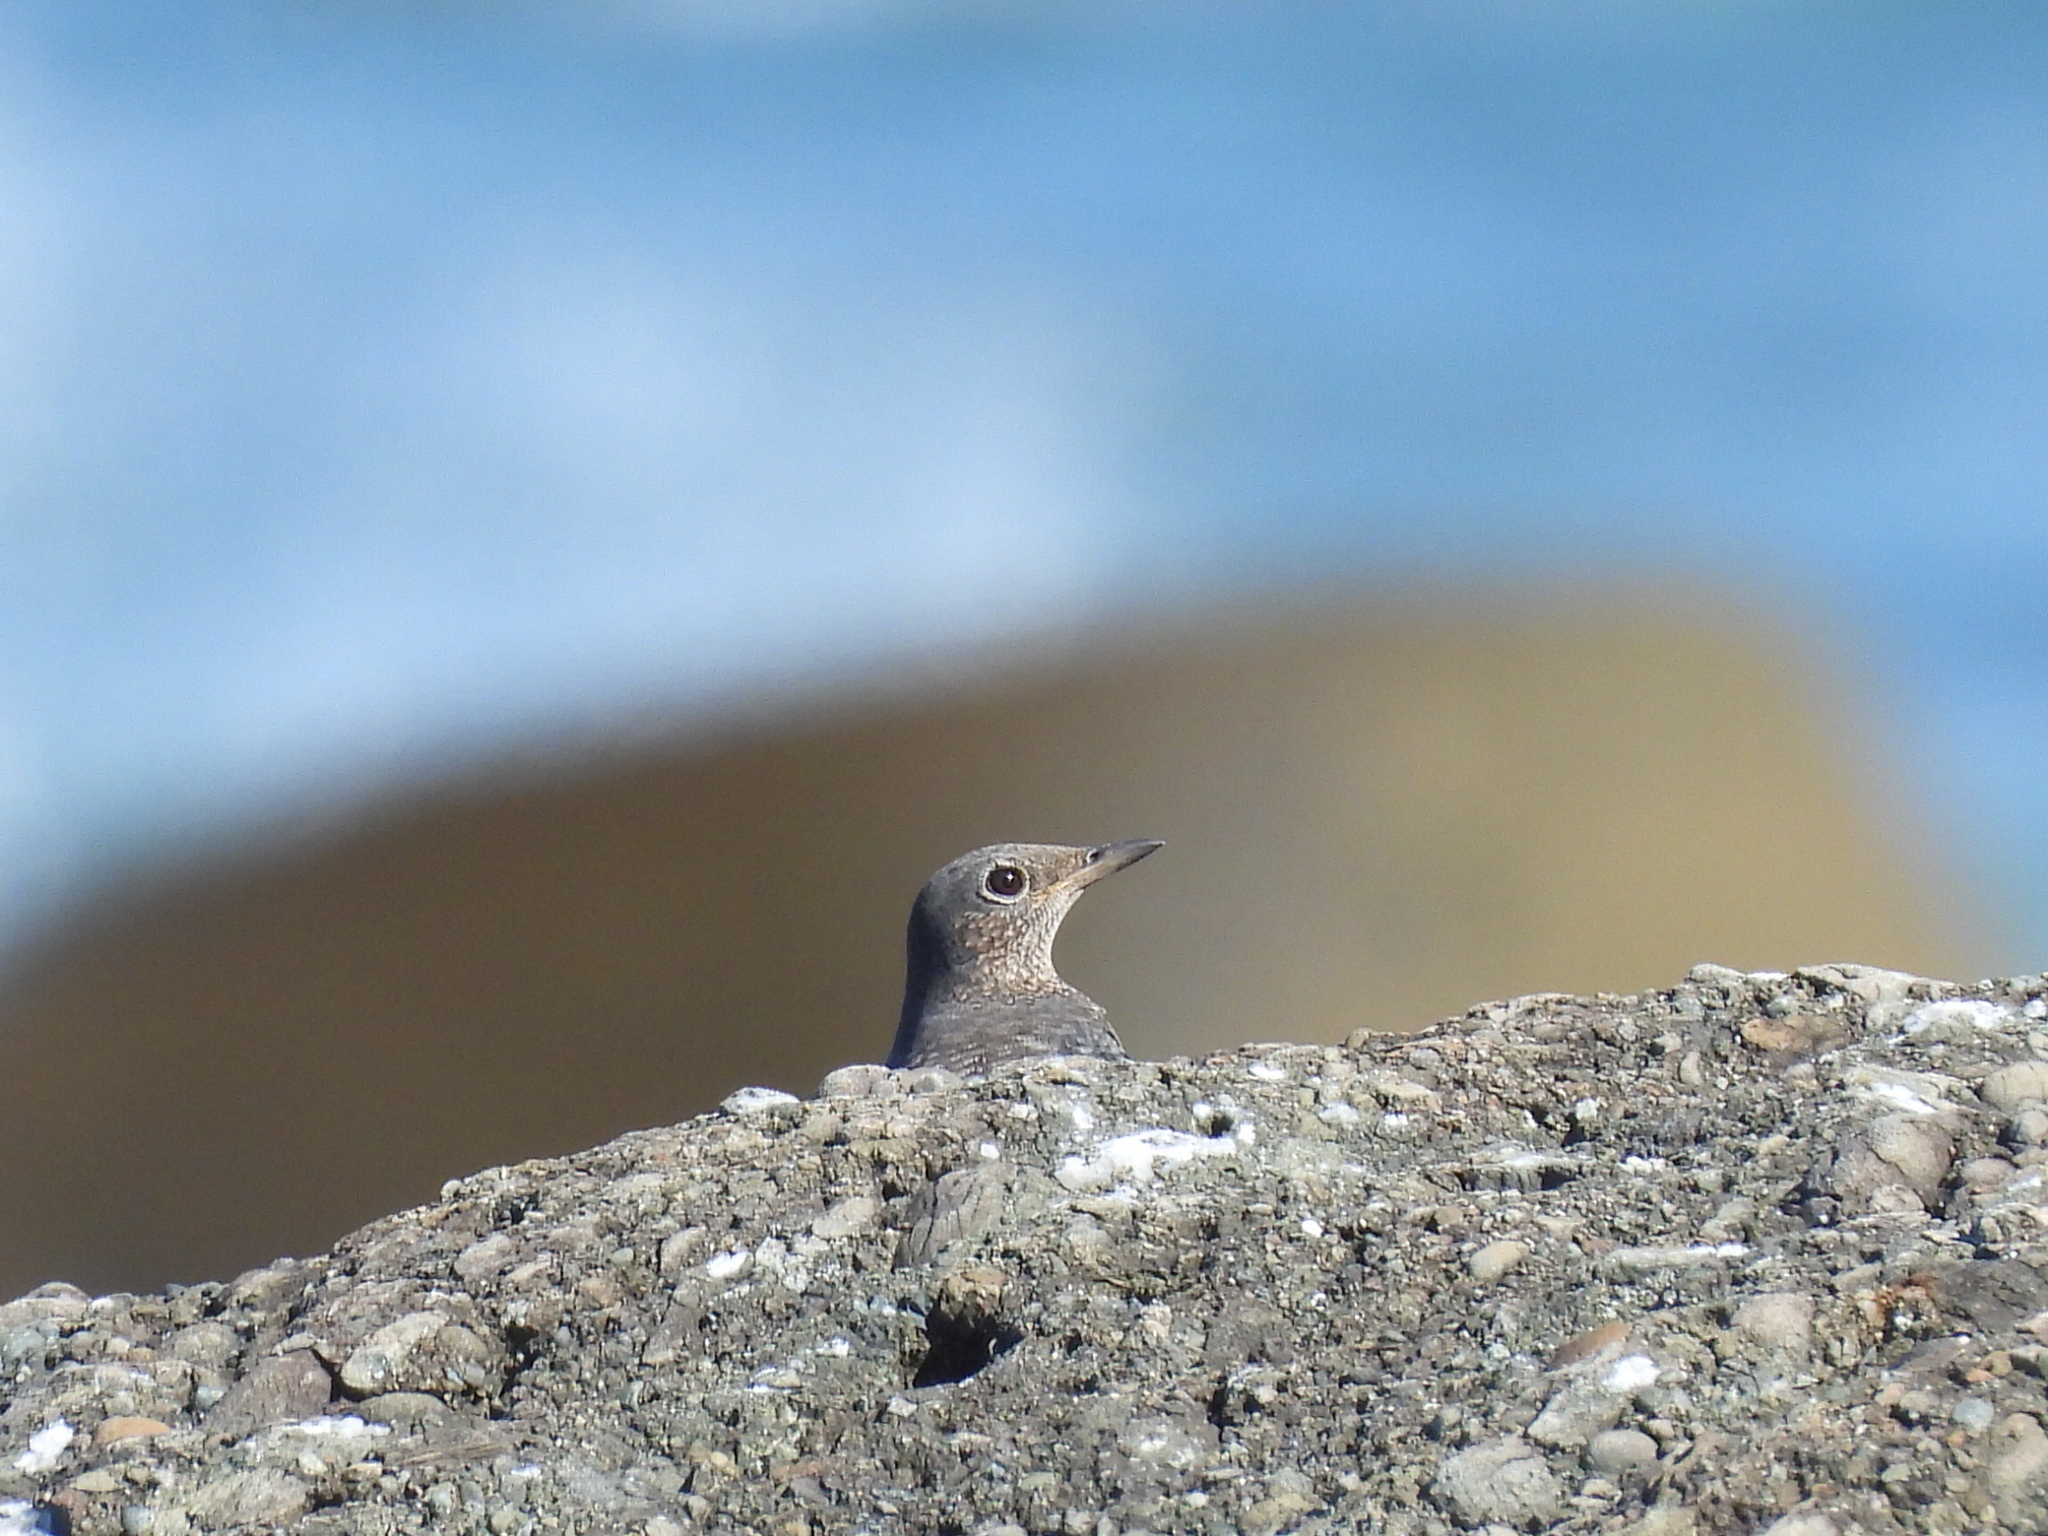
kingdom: Animalia
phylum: Chordata
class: Aves
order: Passeriformes
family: Muscicapidae
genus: Monticola
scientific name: Monticola solitarius
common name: Blue rock thrush
